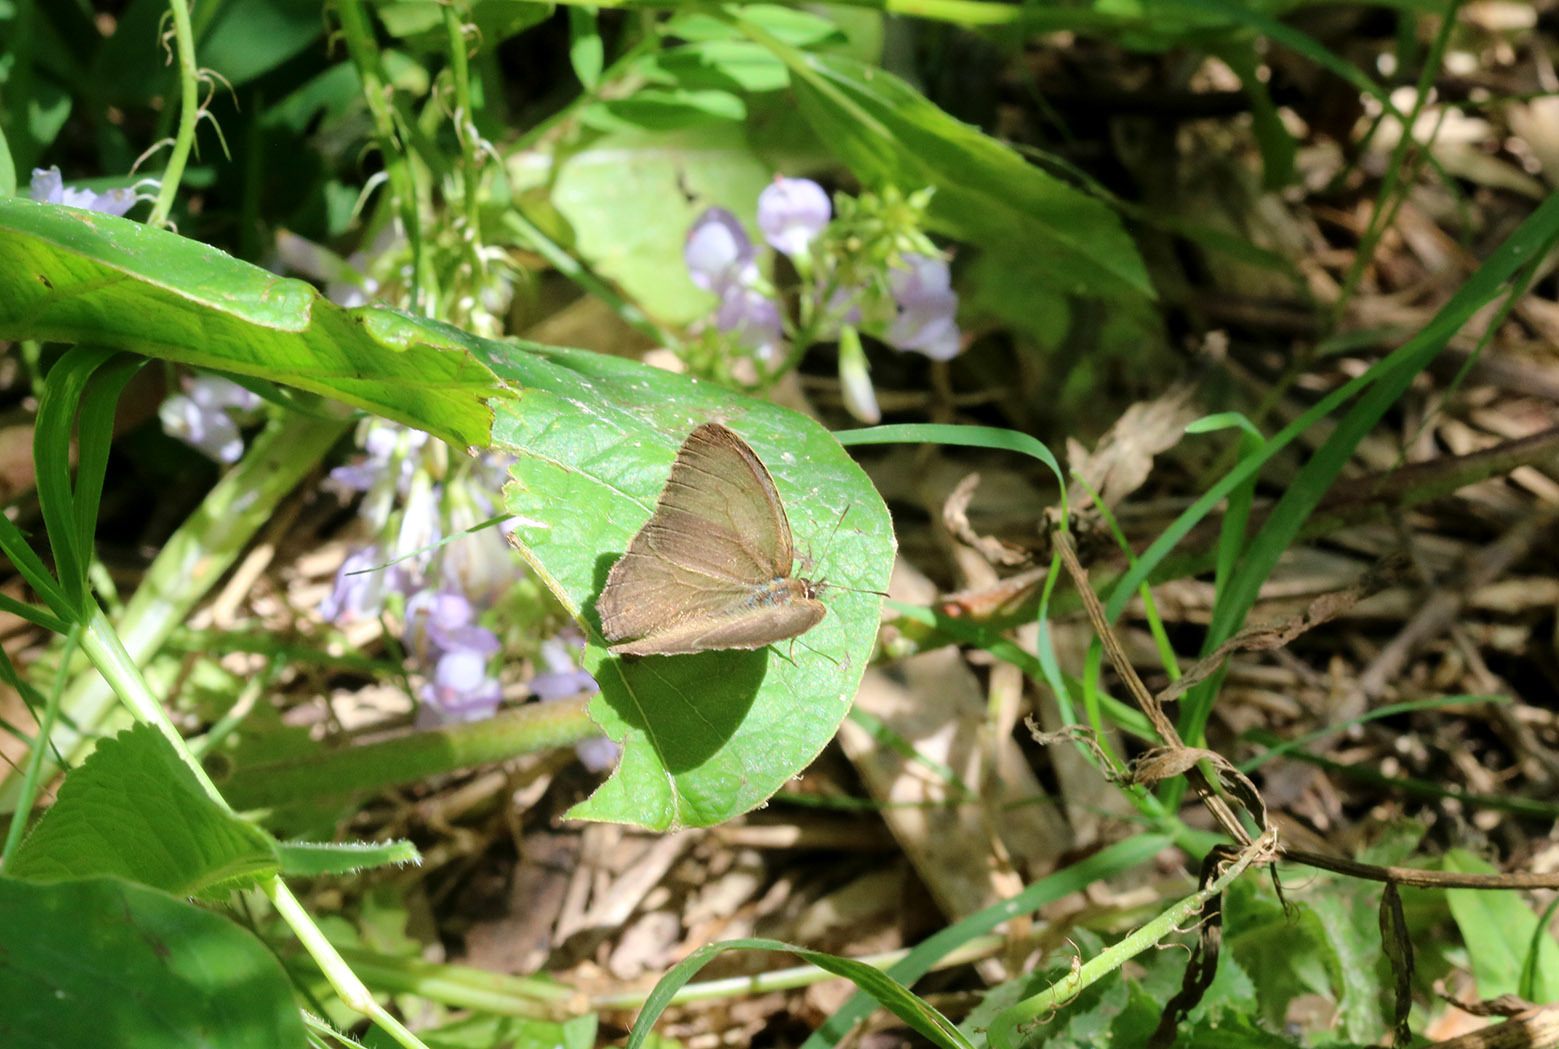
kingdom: Animalia
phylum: Arthropoda
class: Insecta
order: Lepidoptera
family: Nymphalidae
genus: Euptychia
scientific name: Euptychia
